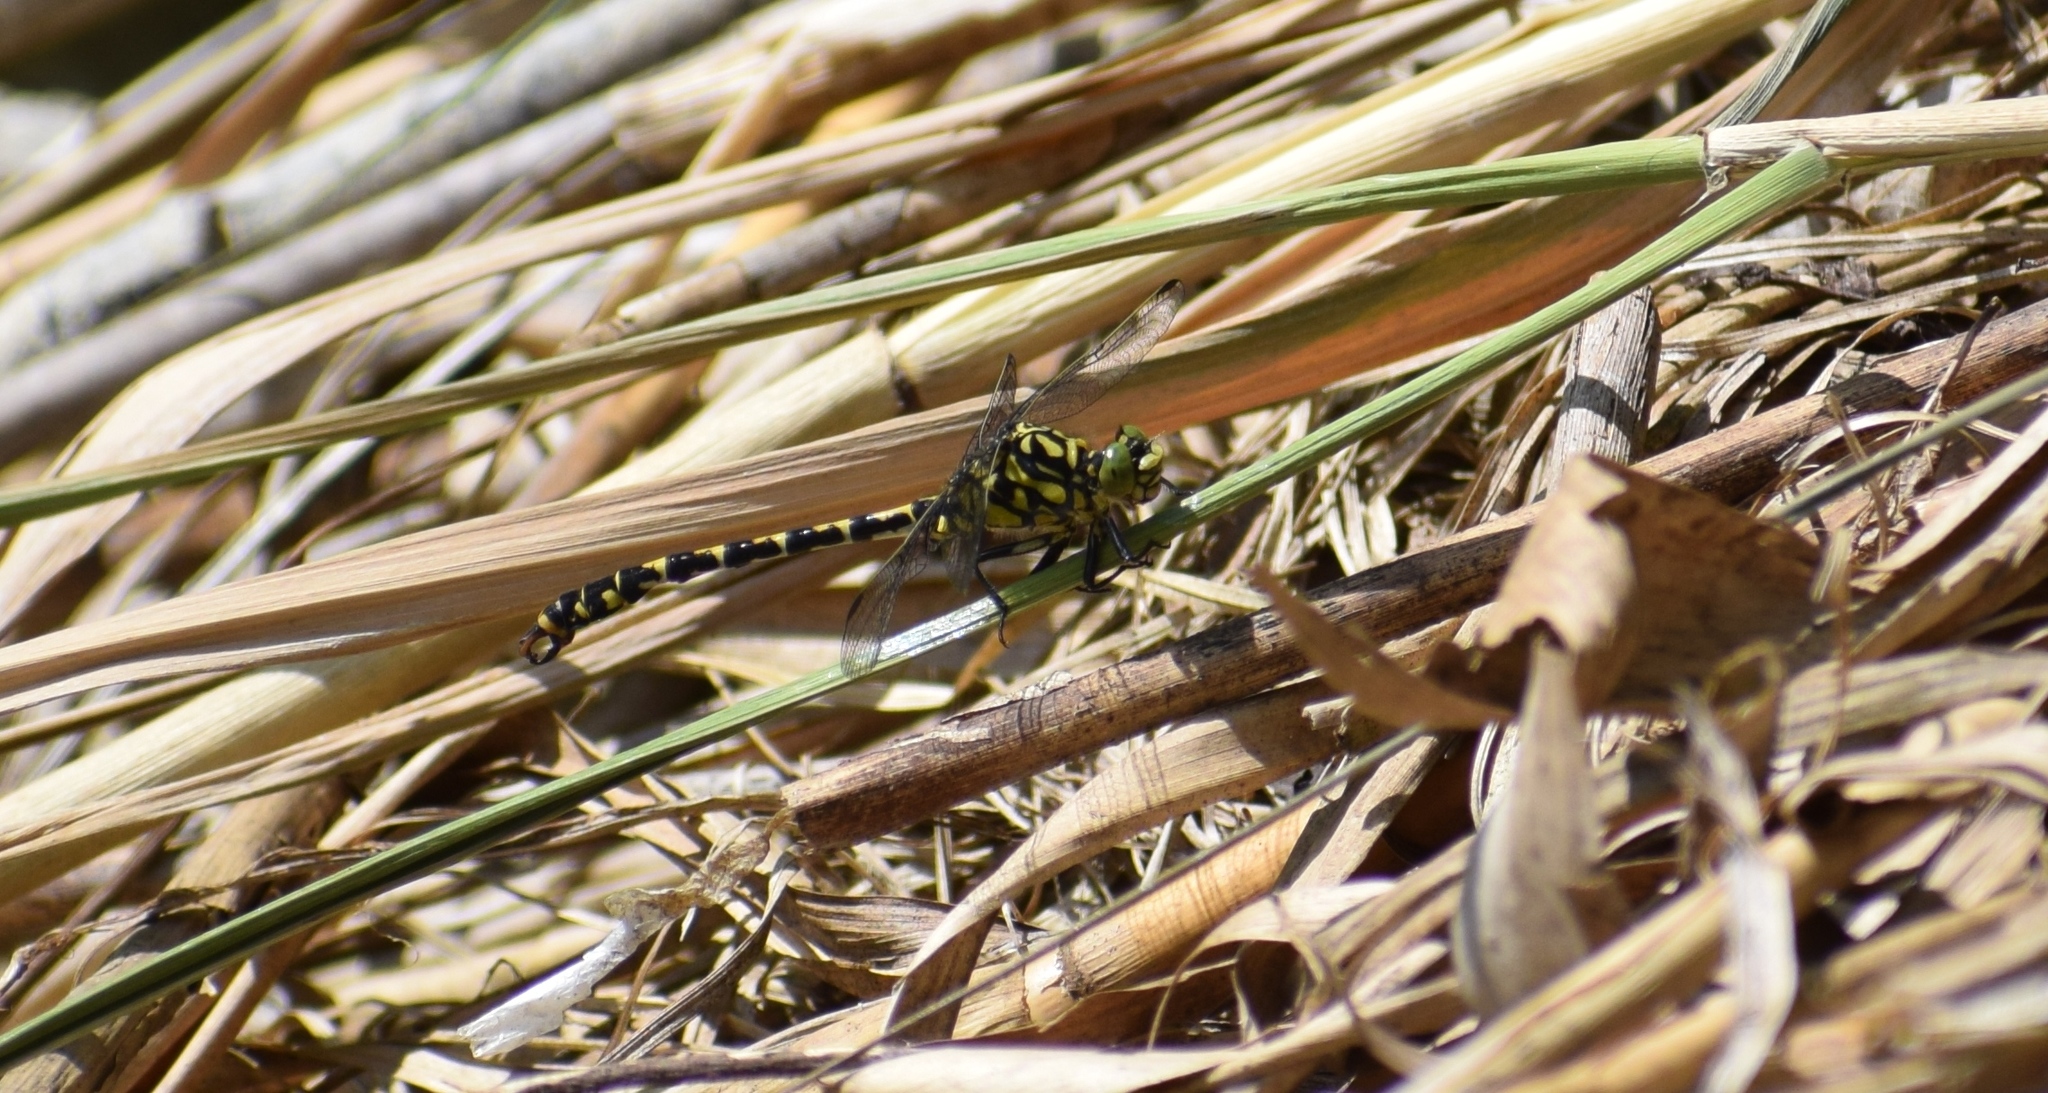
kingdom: Animalia
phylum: Arthropoda
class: Insecta
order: Odonata
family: Gomphidae
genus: Onychogomphus
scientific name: Onychogomphus forcipatus
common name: Small pincertail
